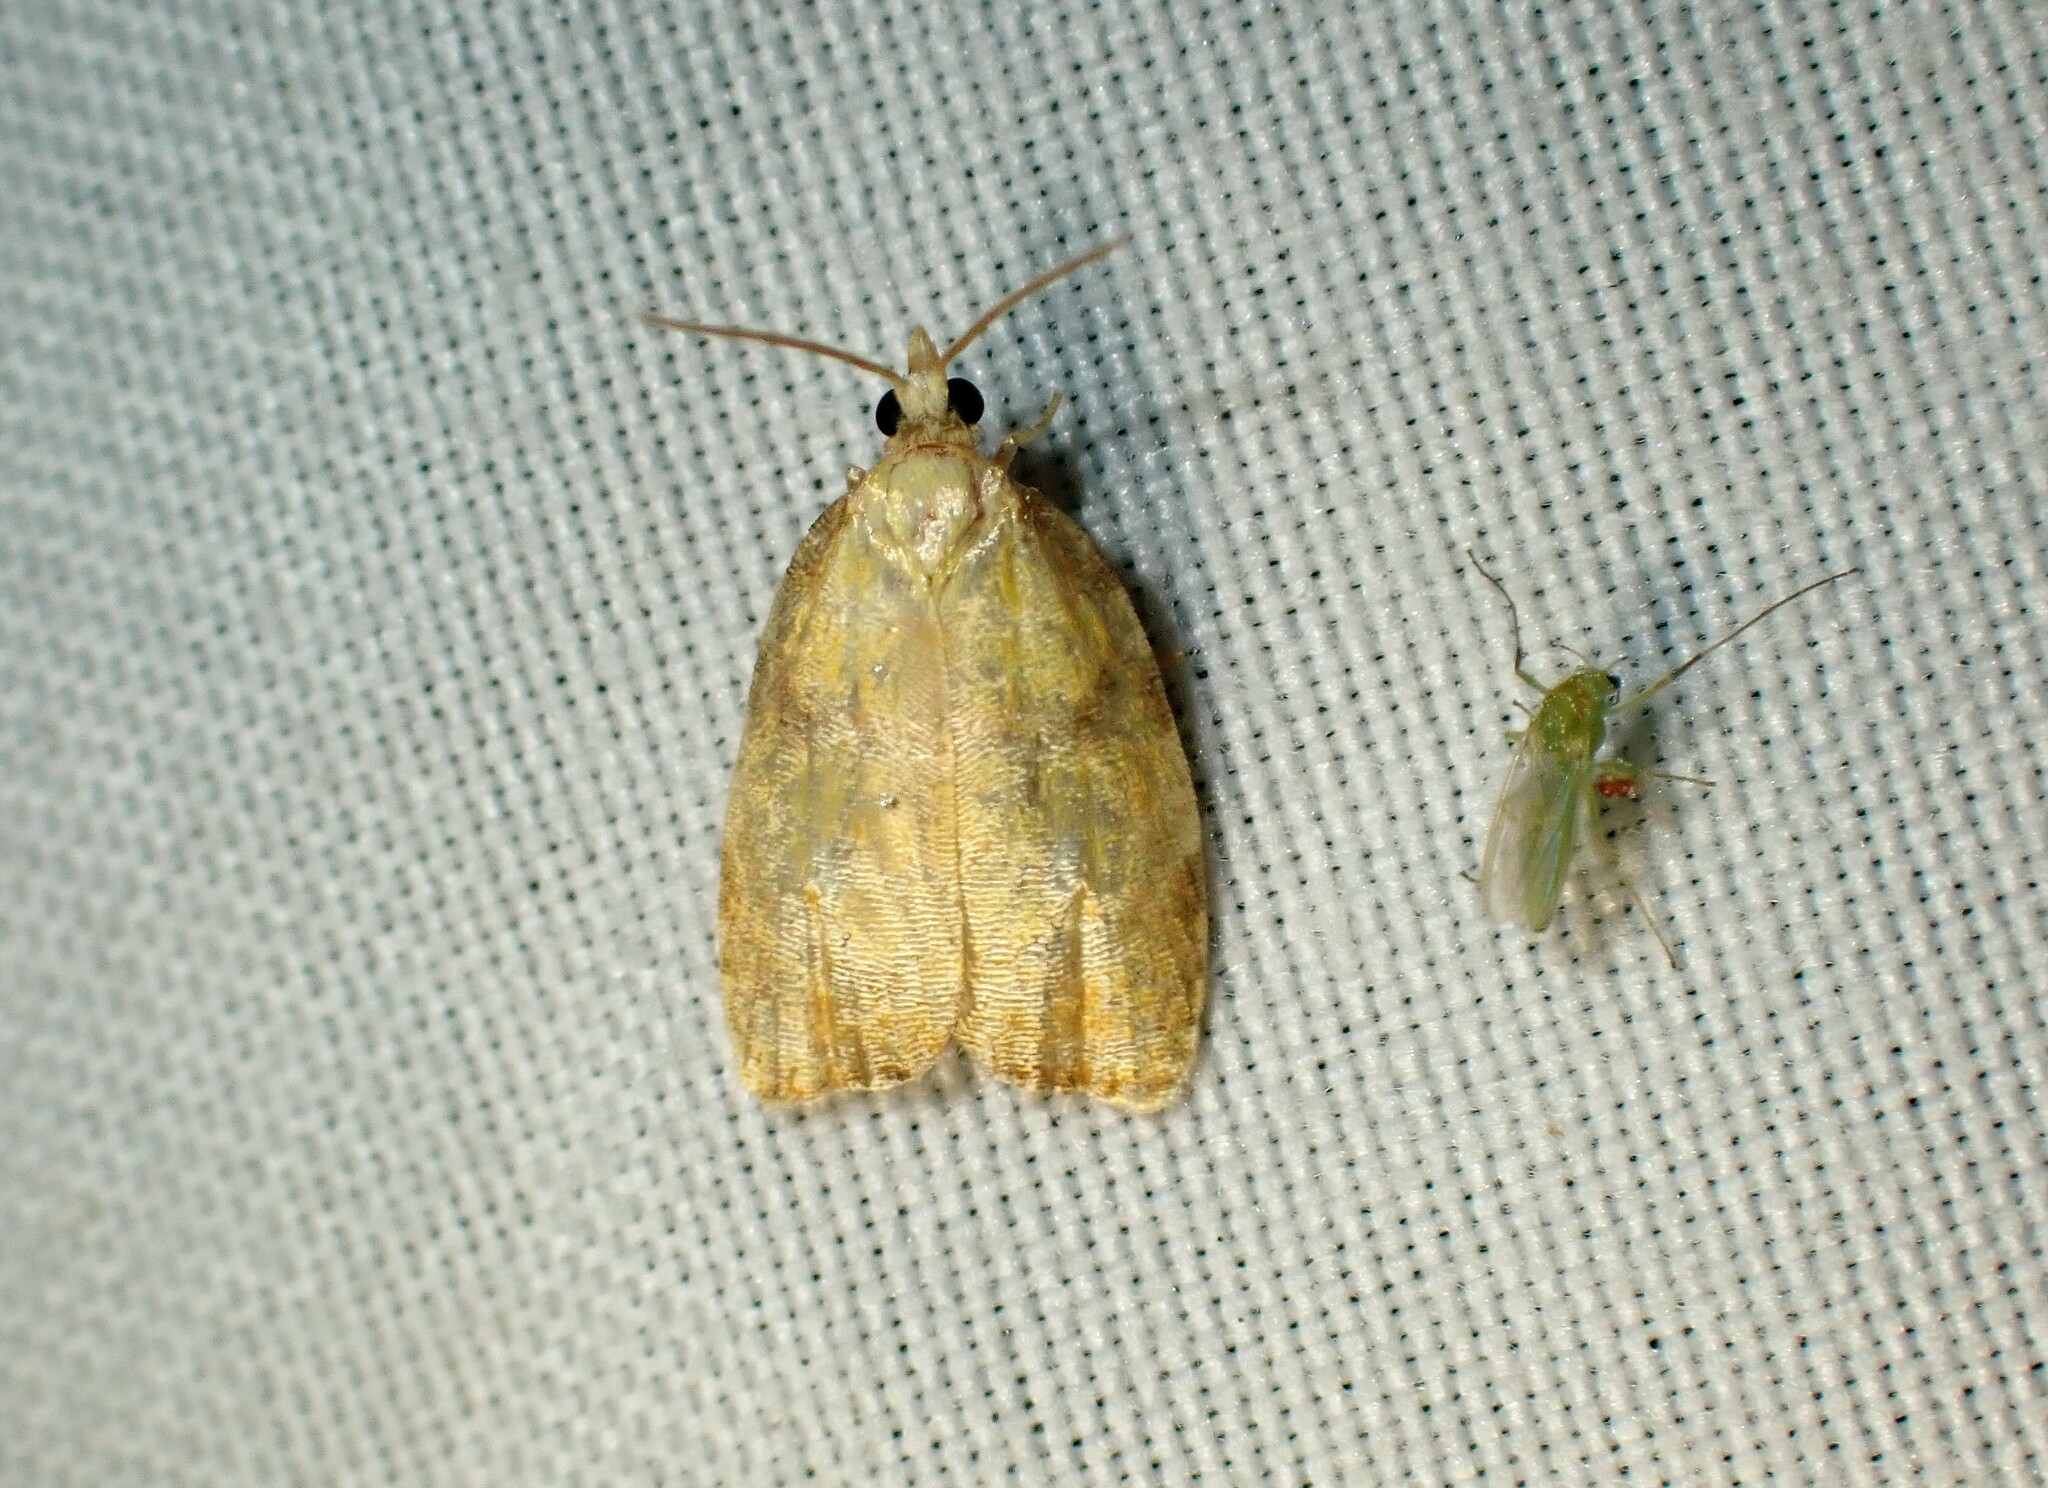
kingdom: Animalia
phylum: Arthropoda
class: Insecta
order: Lepidoptera
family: Tortricidae
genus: Acleris
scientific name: Acleris curvalana
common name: Blueberry leaftier moth
